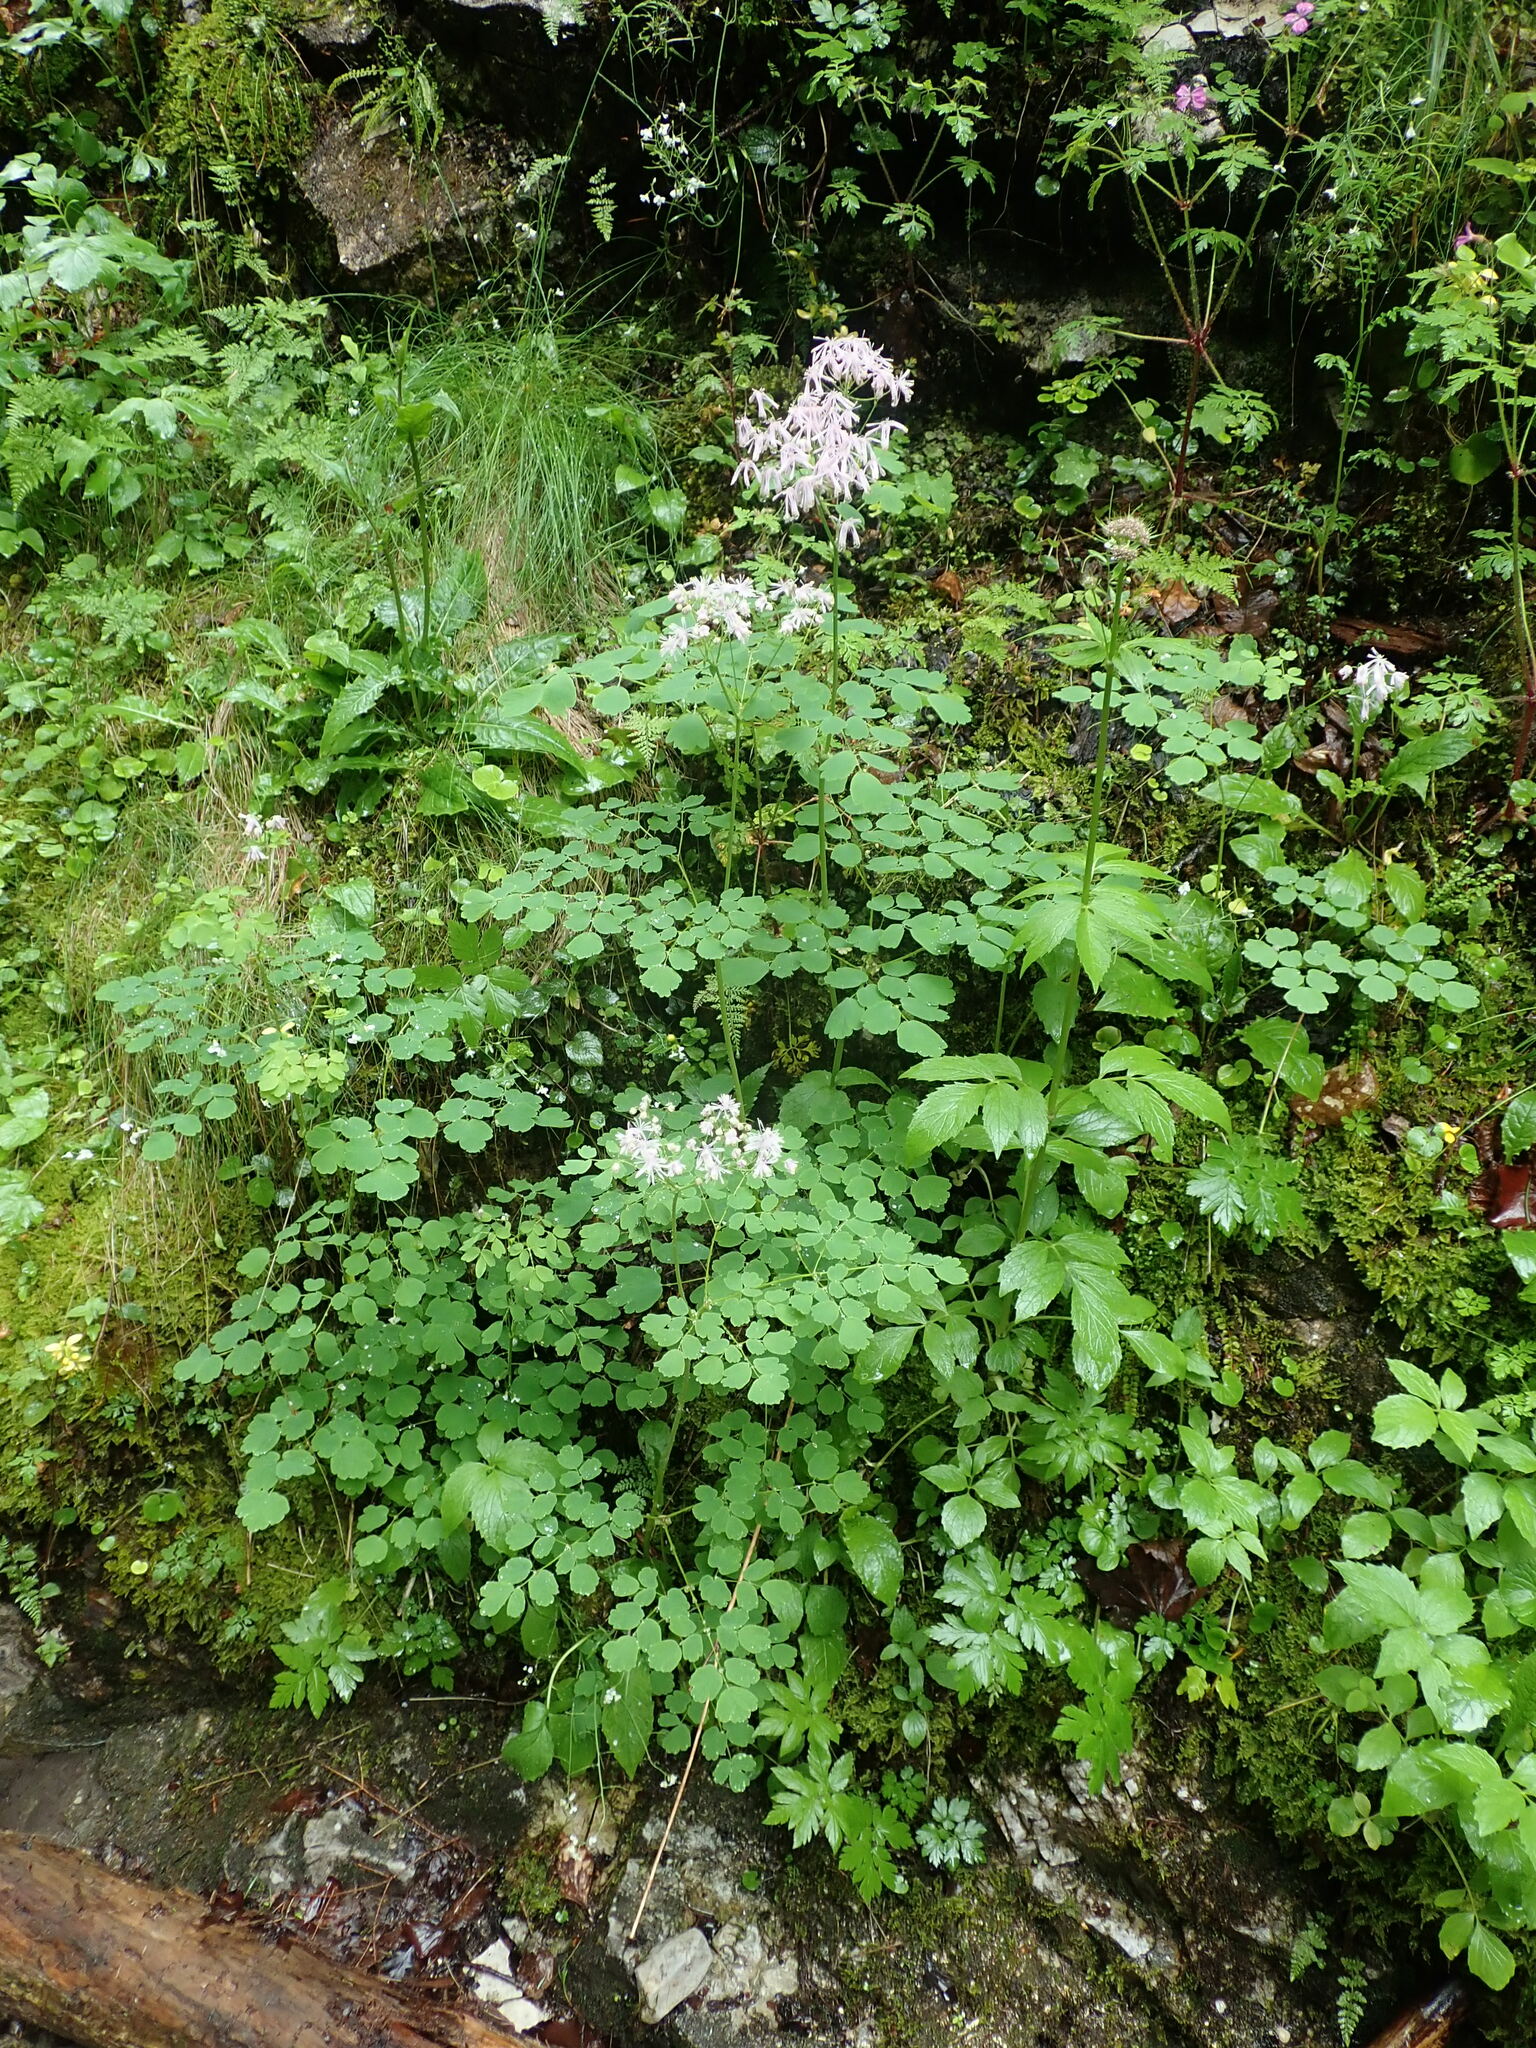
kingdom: Plantae
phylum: Tracheophyta
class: Magnoliopsida
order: Ranunculales
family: Ranunculaceae
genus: Thalictrum
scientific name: Thalictrum aquilegiifolium
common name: French meadow-rue
